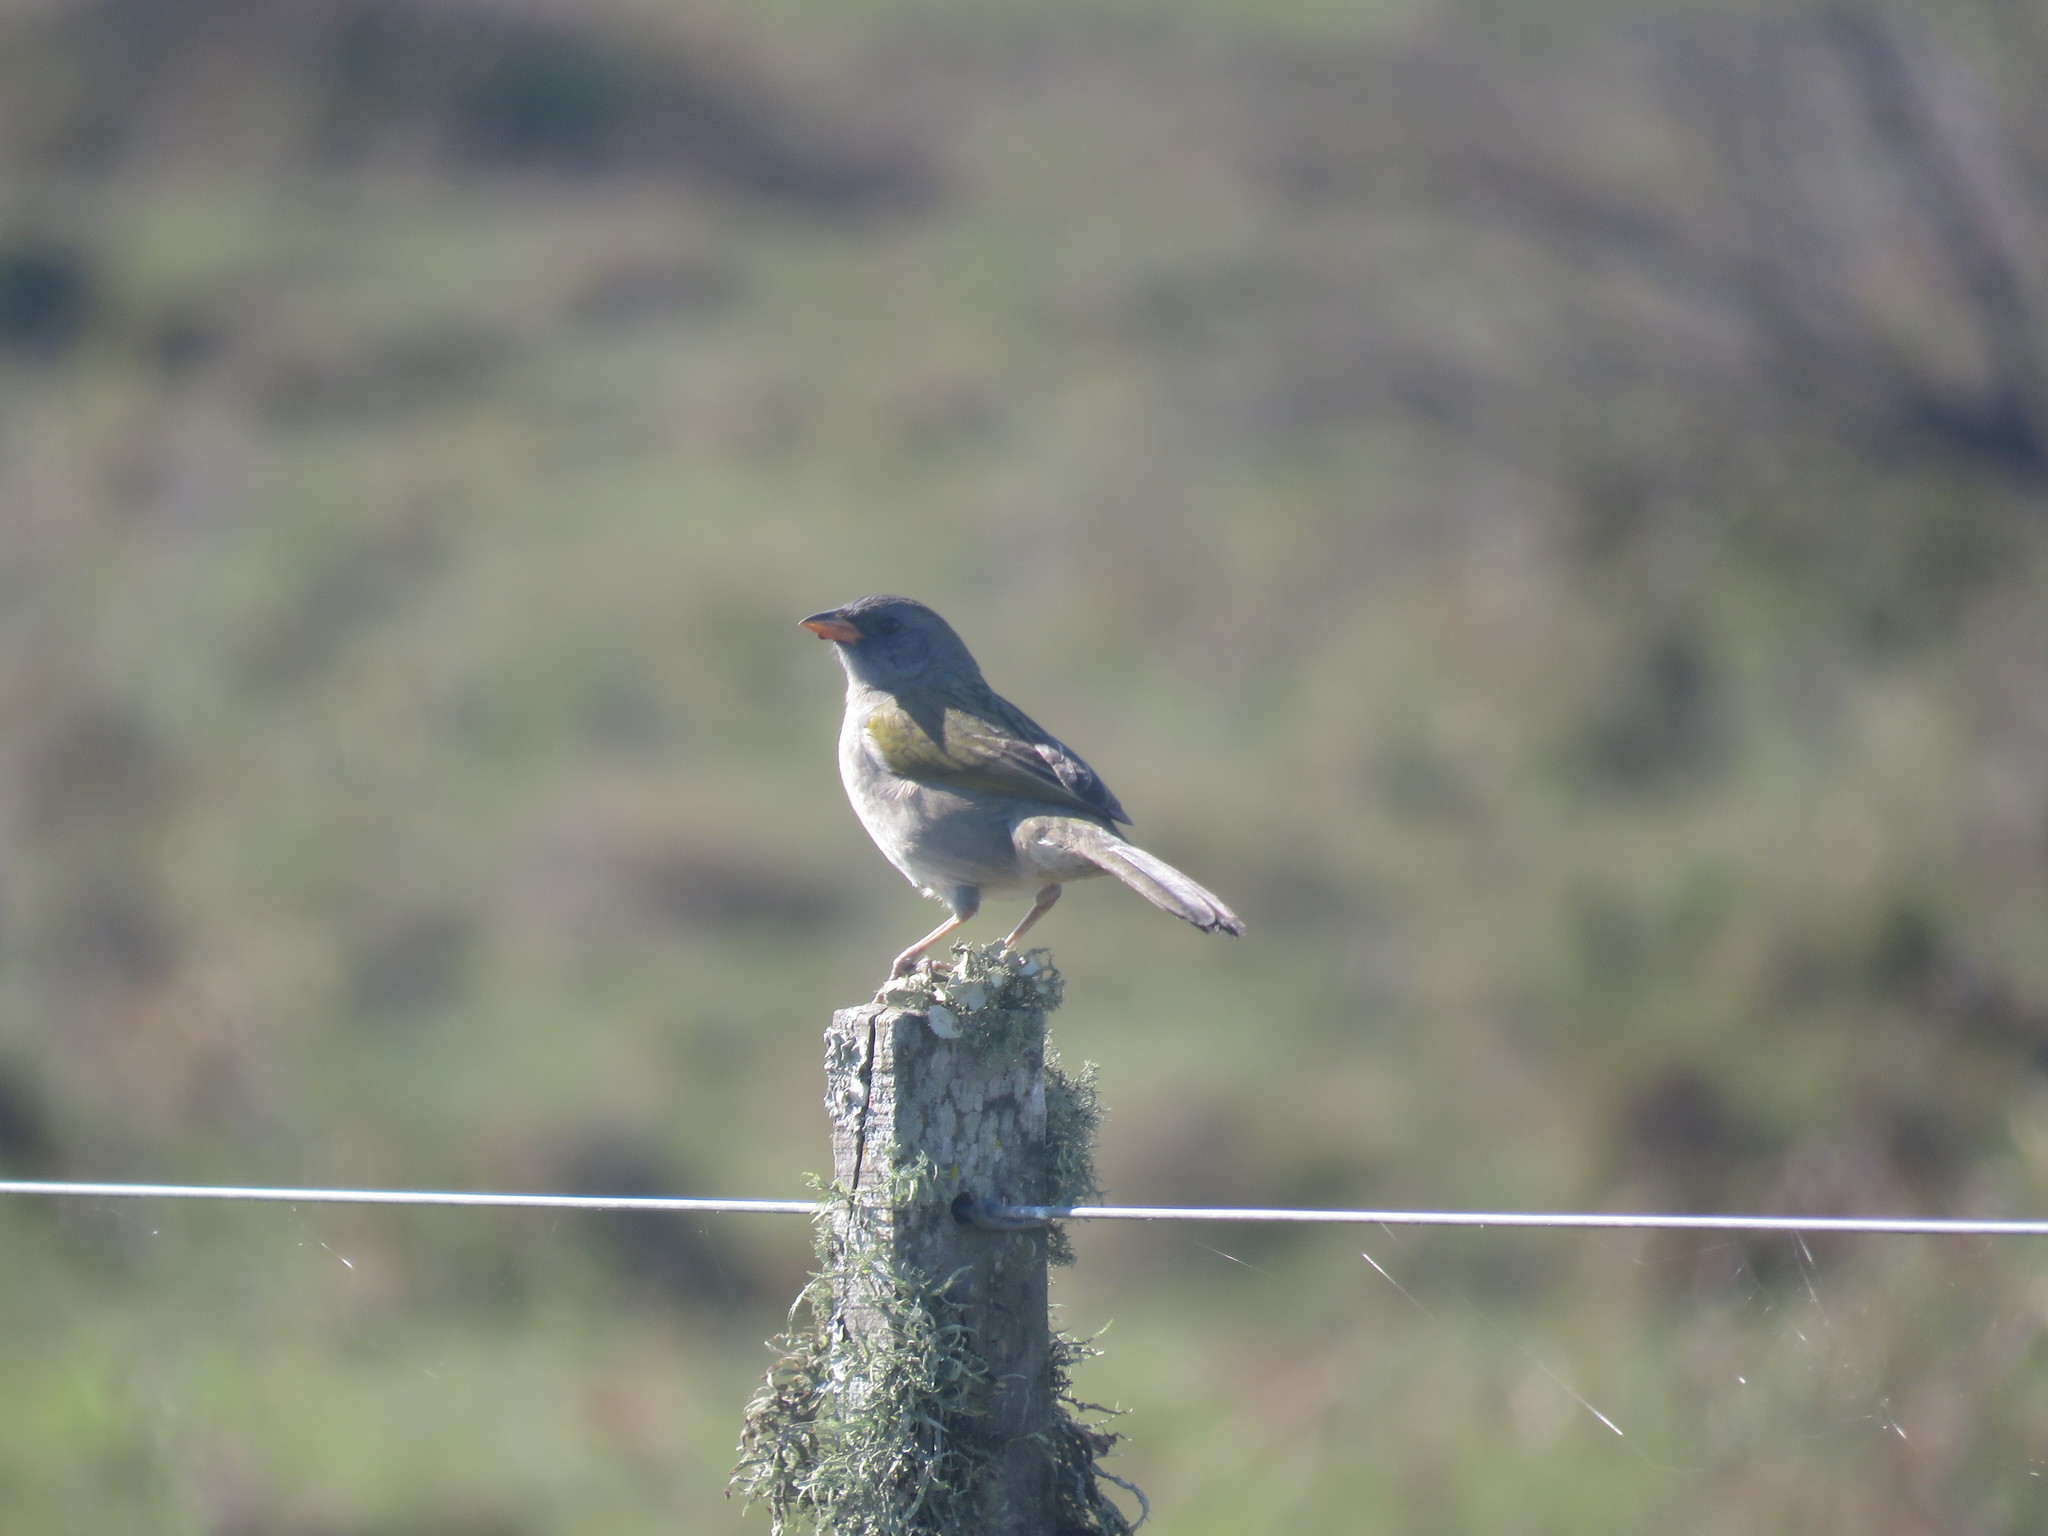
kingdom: Animalia
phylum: Chordata
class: Aves
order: Passeriformes
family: Thraupidae
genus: Embernagra
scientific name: Embernagra platensis
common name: Pampa finch
